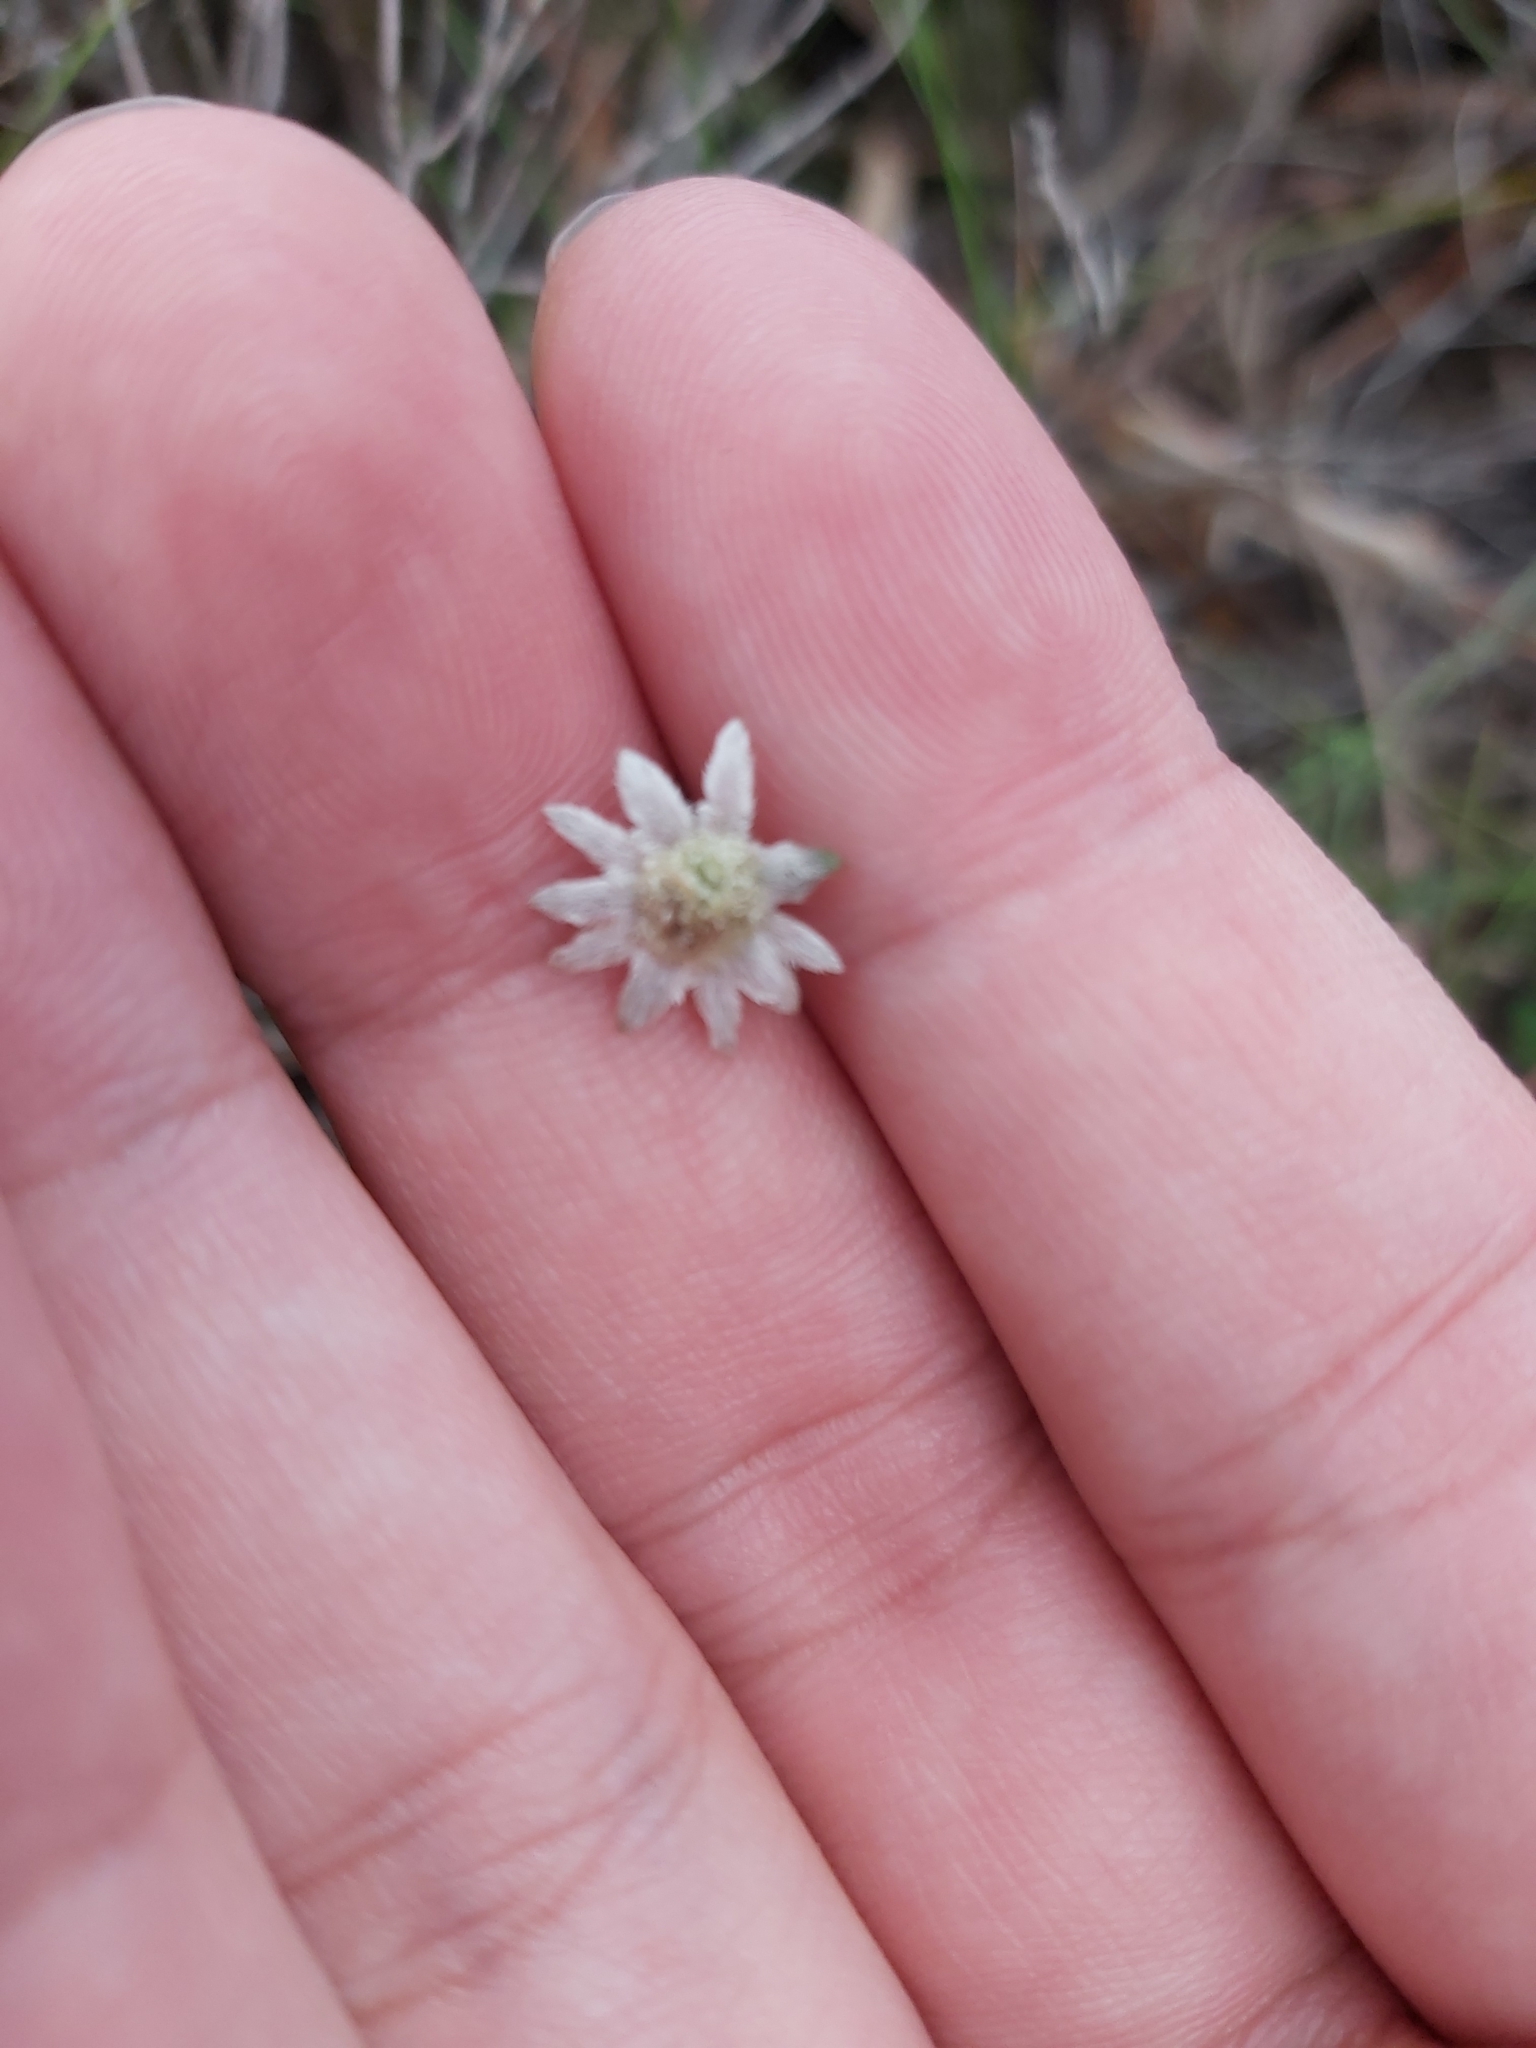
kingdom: Plantae
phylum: Tracheophyta
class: Magnoliopsida
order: Apiales
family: Apiaceae
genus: Actinotus
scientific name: Actinotus minor
